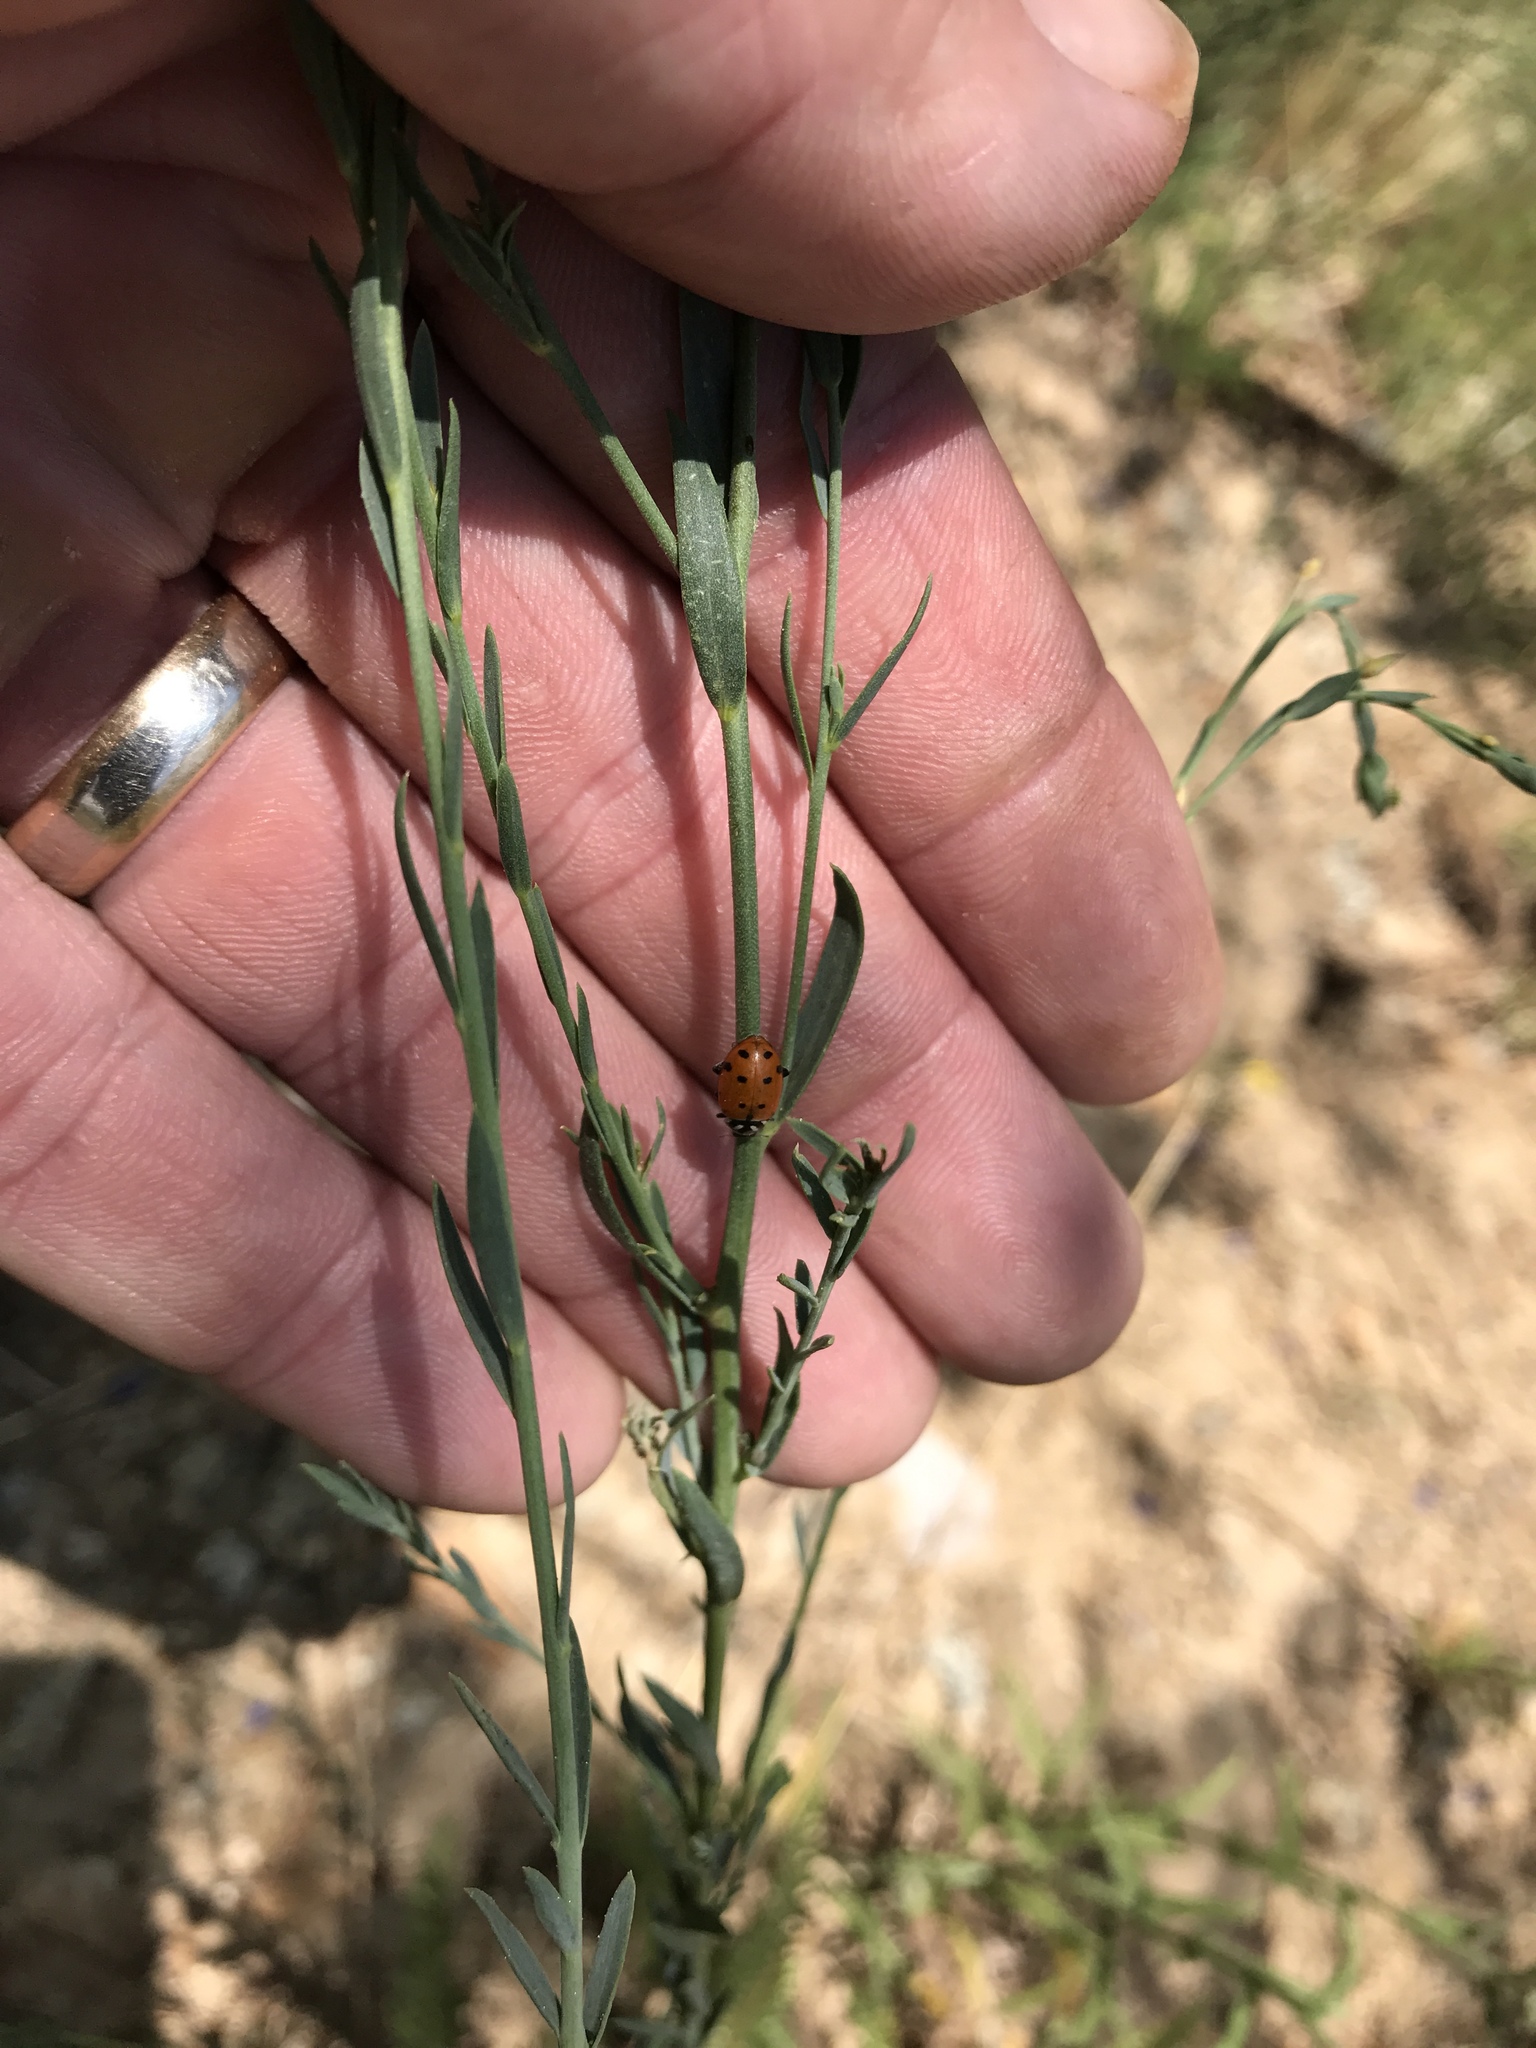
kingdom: Animalia
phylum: Arthropoda
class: Insecta
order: Coleoptera
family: Coccinellidae
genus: Hippodamia
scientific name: Hippodamia convergens
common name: Convergent lady beetle
